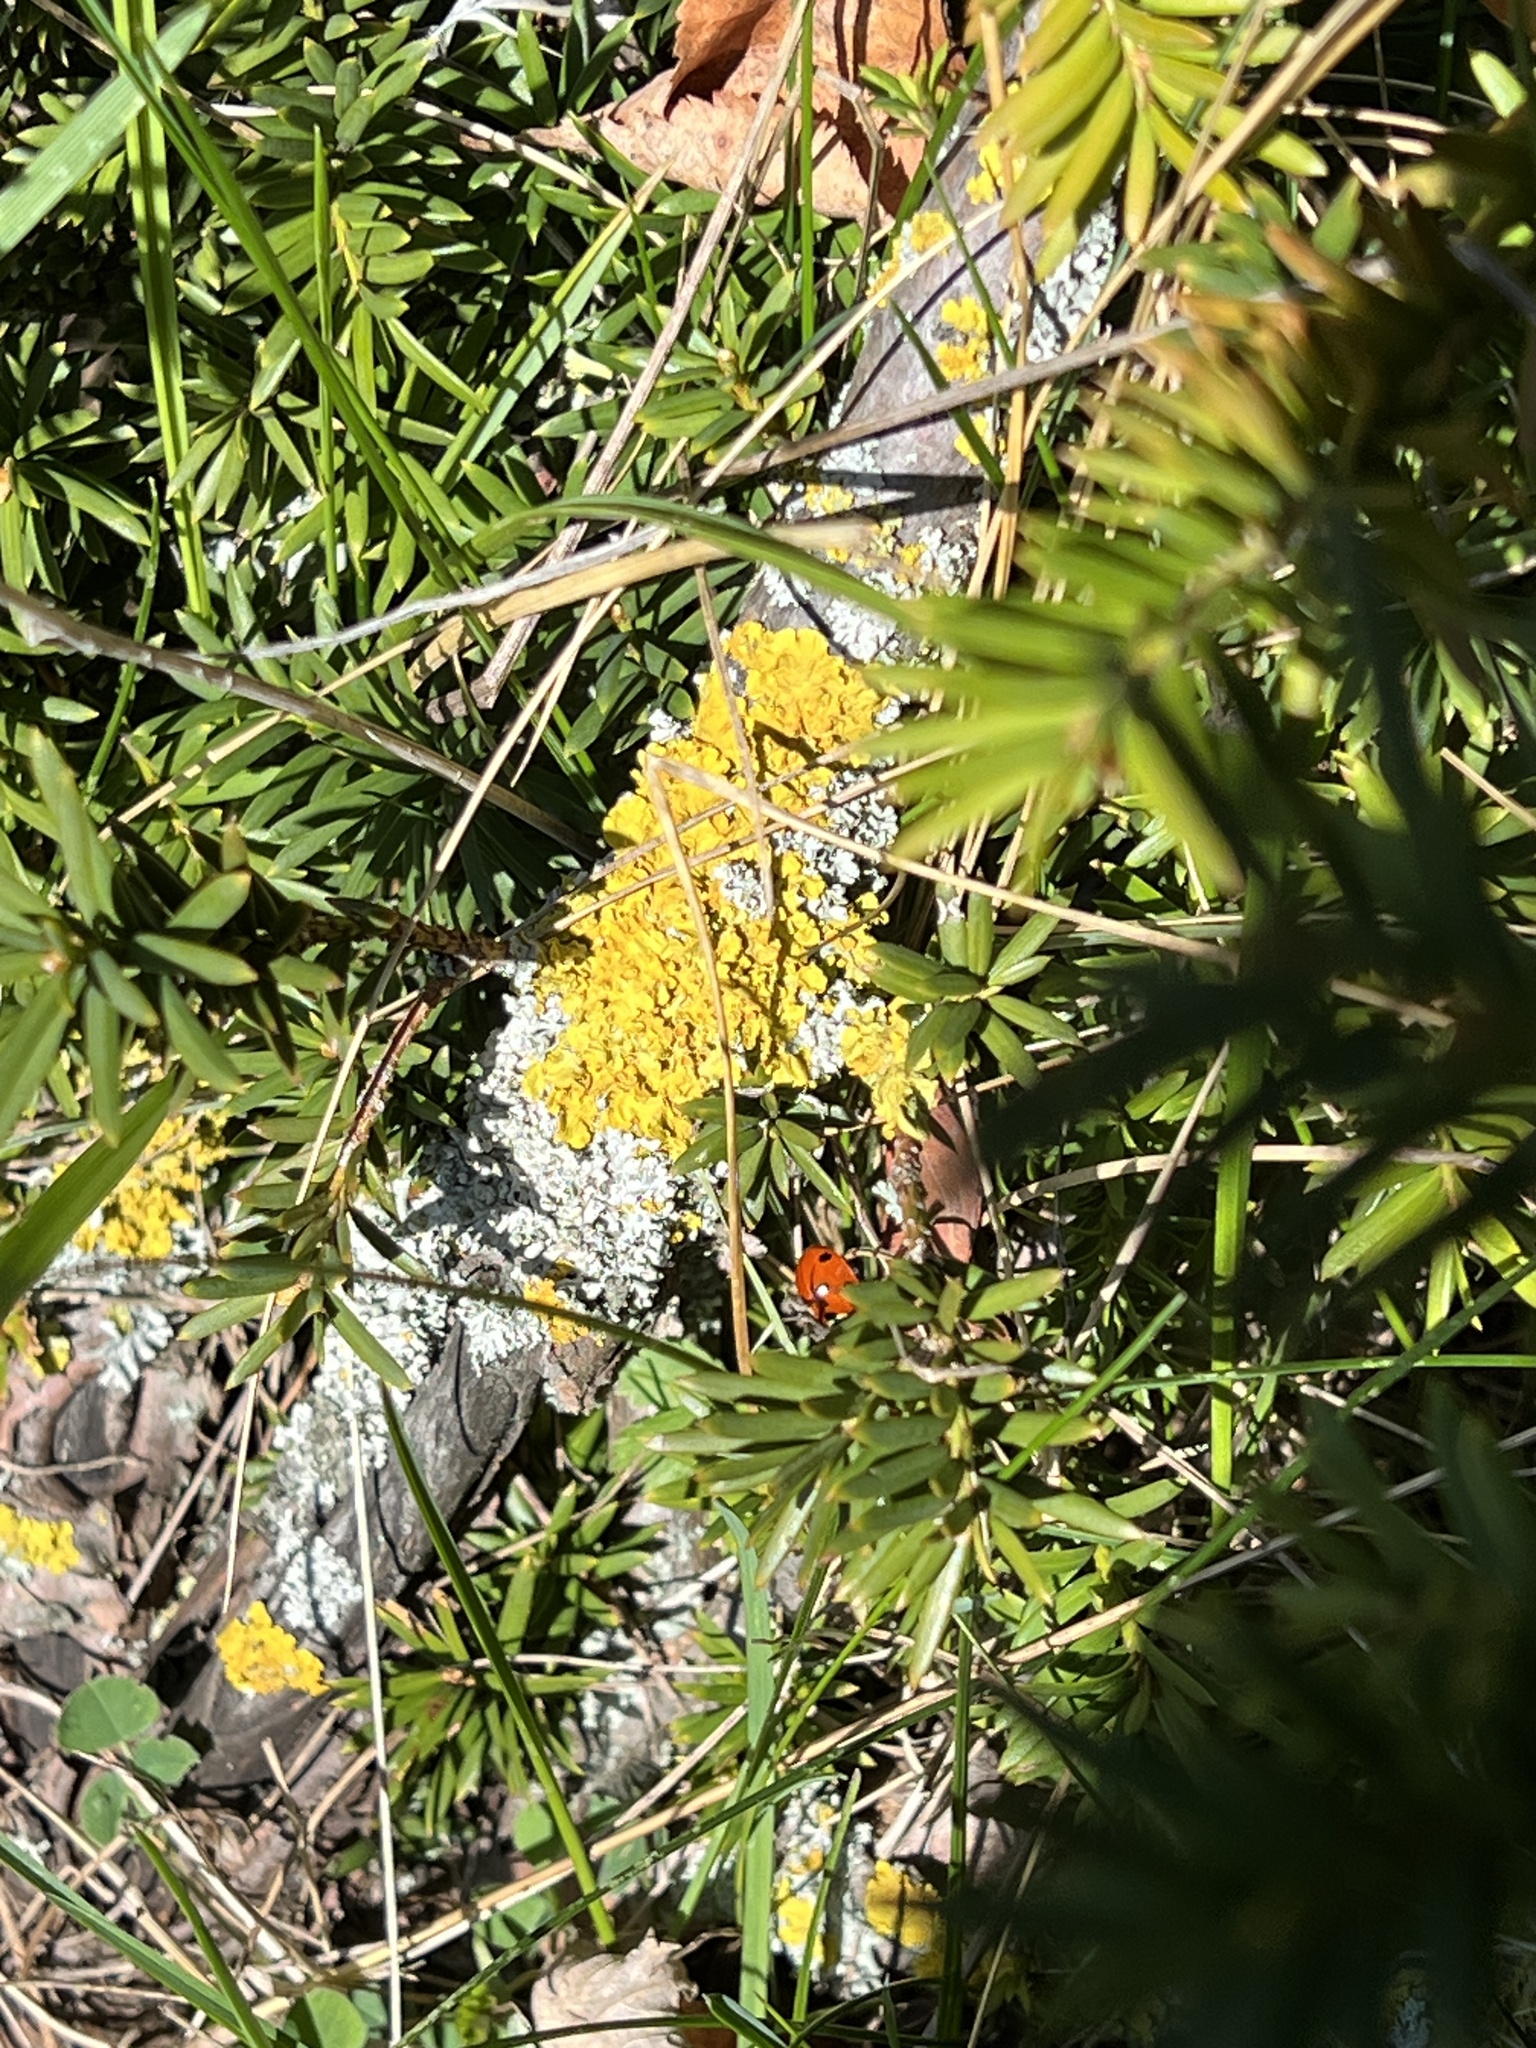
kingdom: Fungi
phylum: Ascomycota
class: Lecanoromycetes
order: Teloschistales
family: Teloschistaceae
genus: Xanthoria
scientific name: Xanthoria parietina
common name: Common orange lichen
